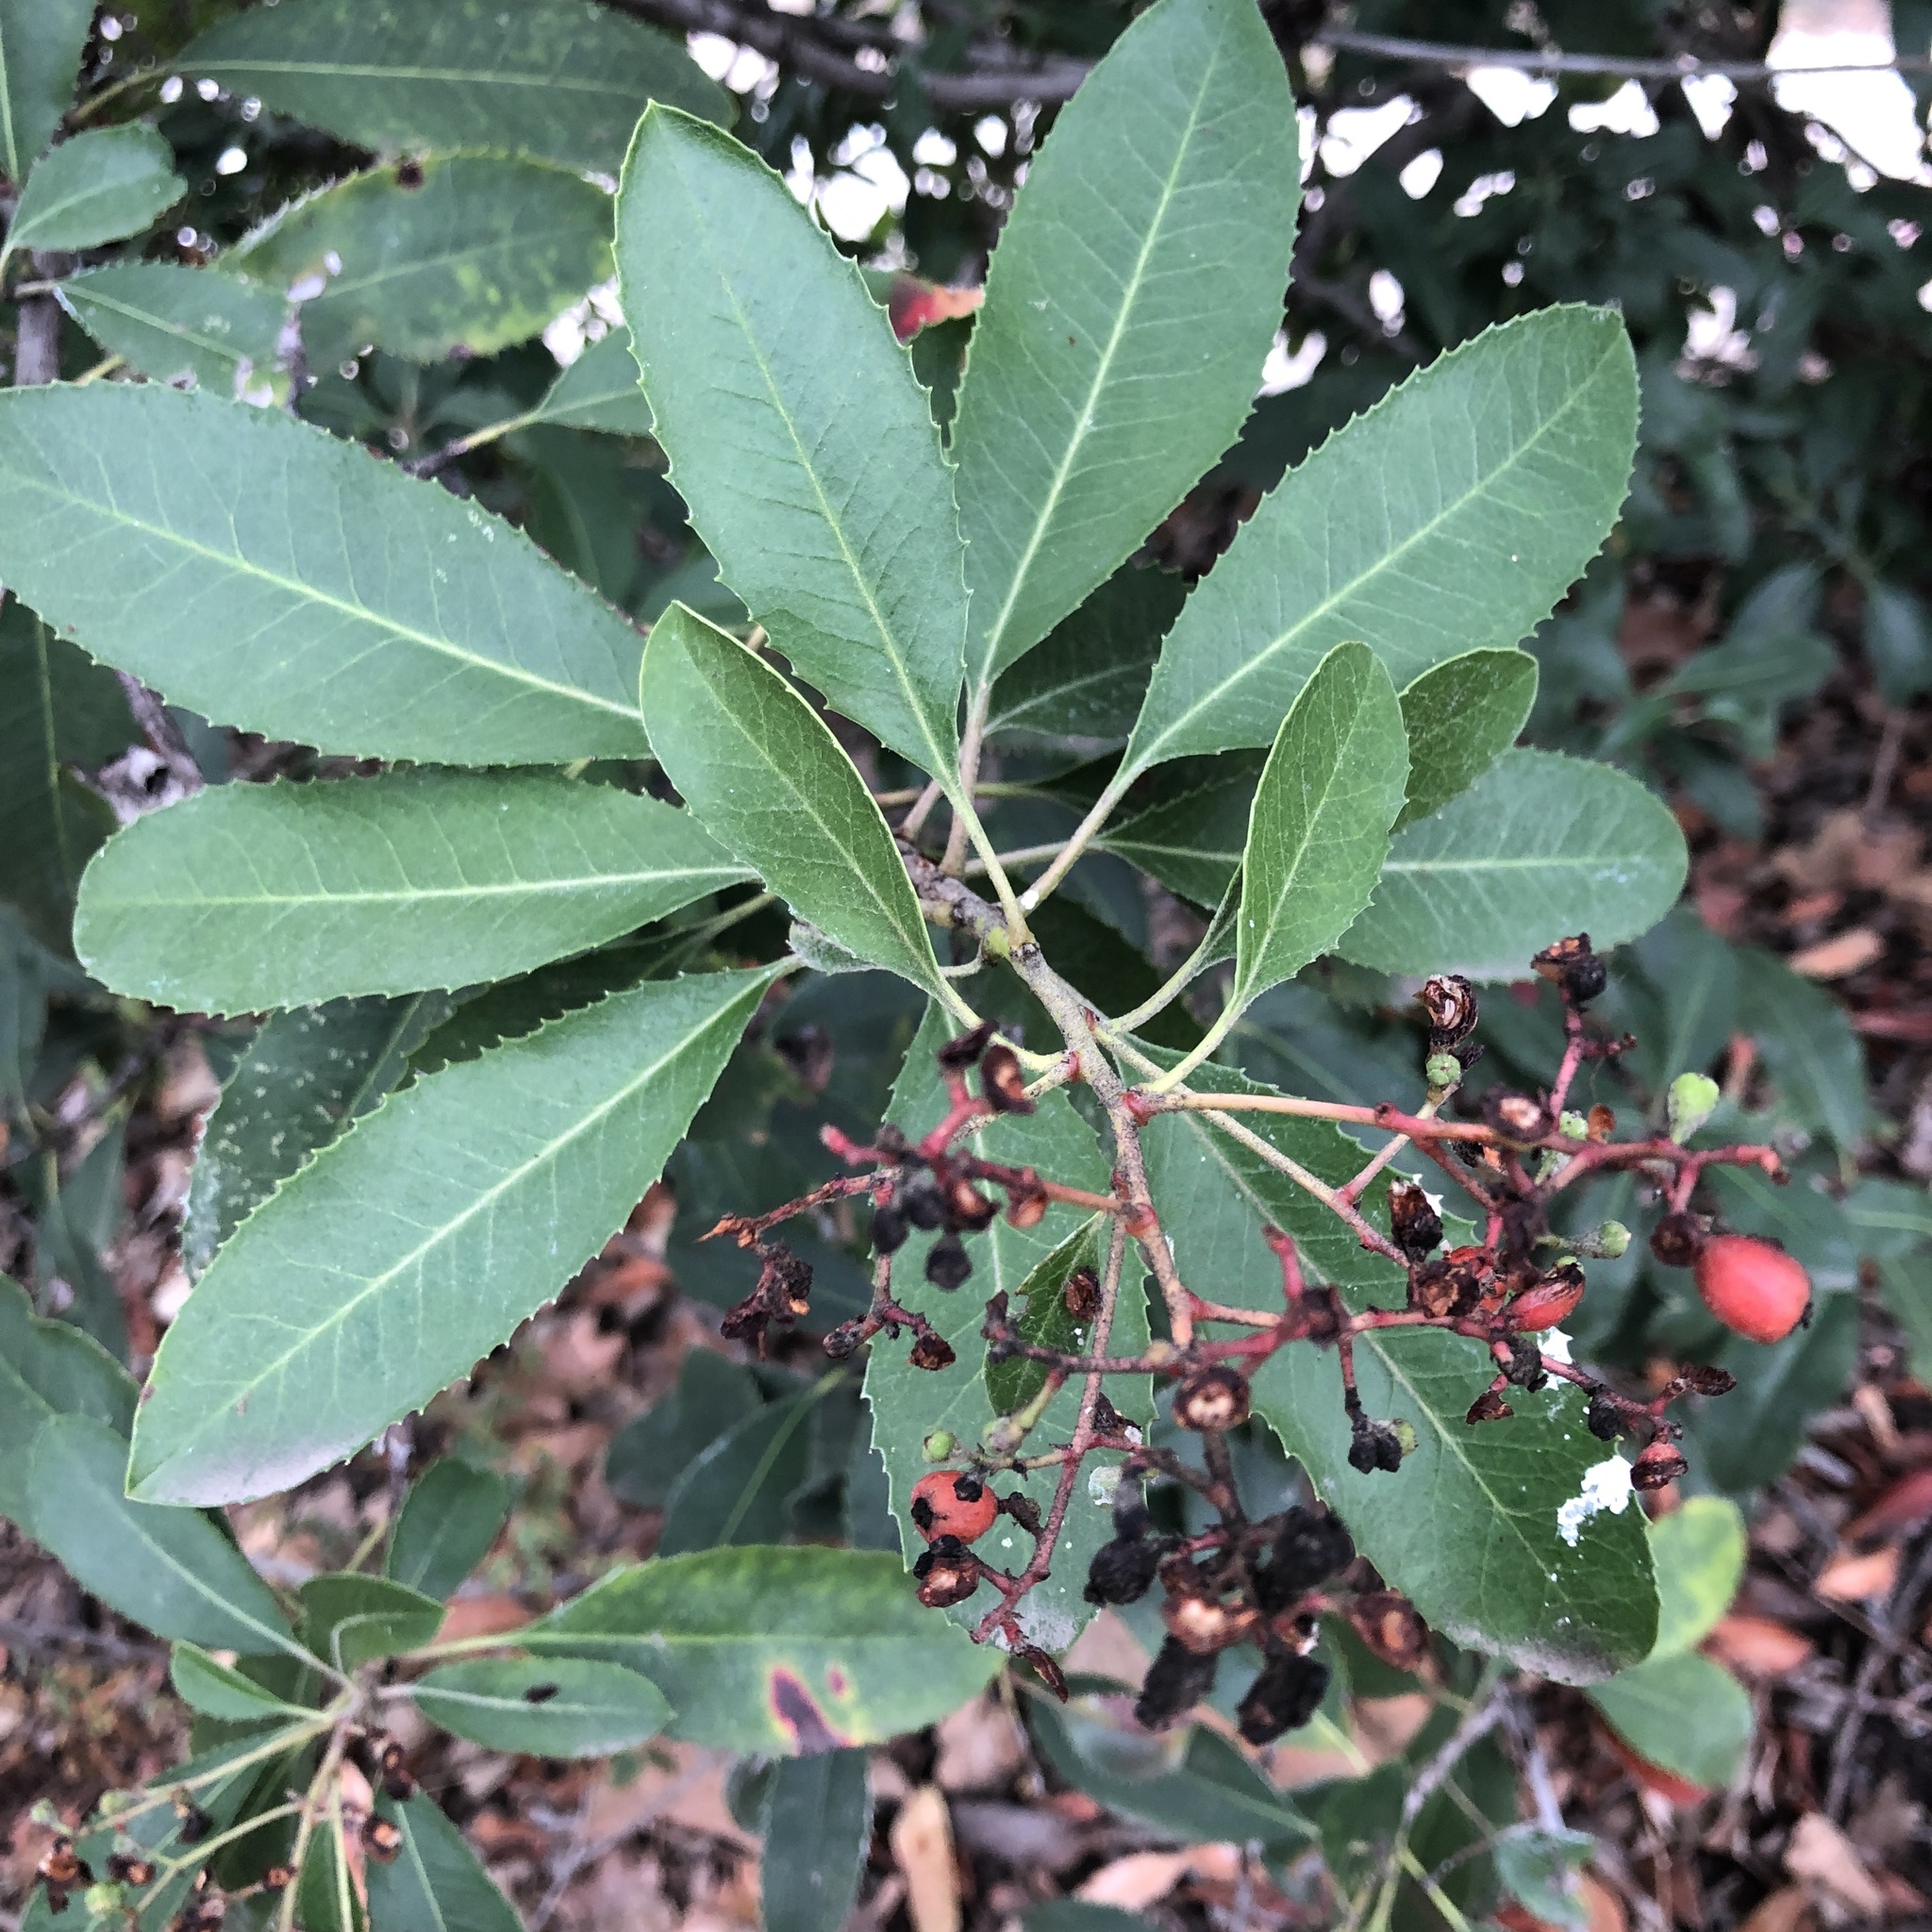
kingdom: Plantae
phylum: Tracheophyta
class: Magnoliopsida
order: Rosales
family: Rosaceae
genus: Heteromeles
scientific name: Heteromeles arbutifolia
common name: California-holly
